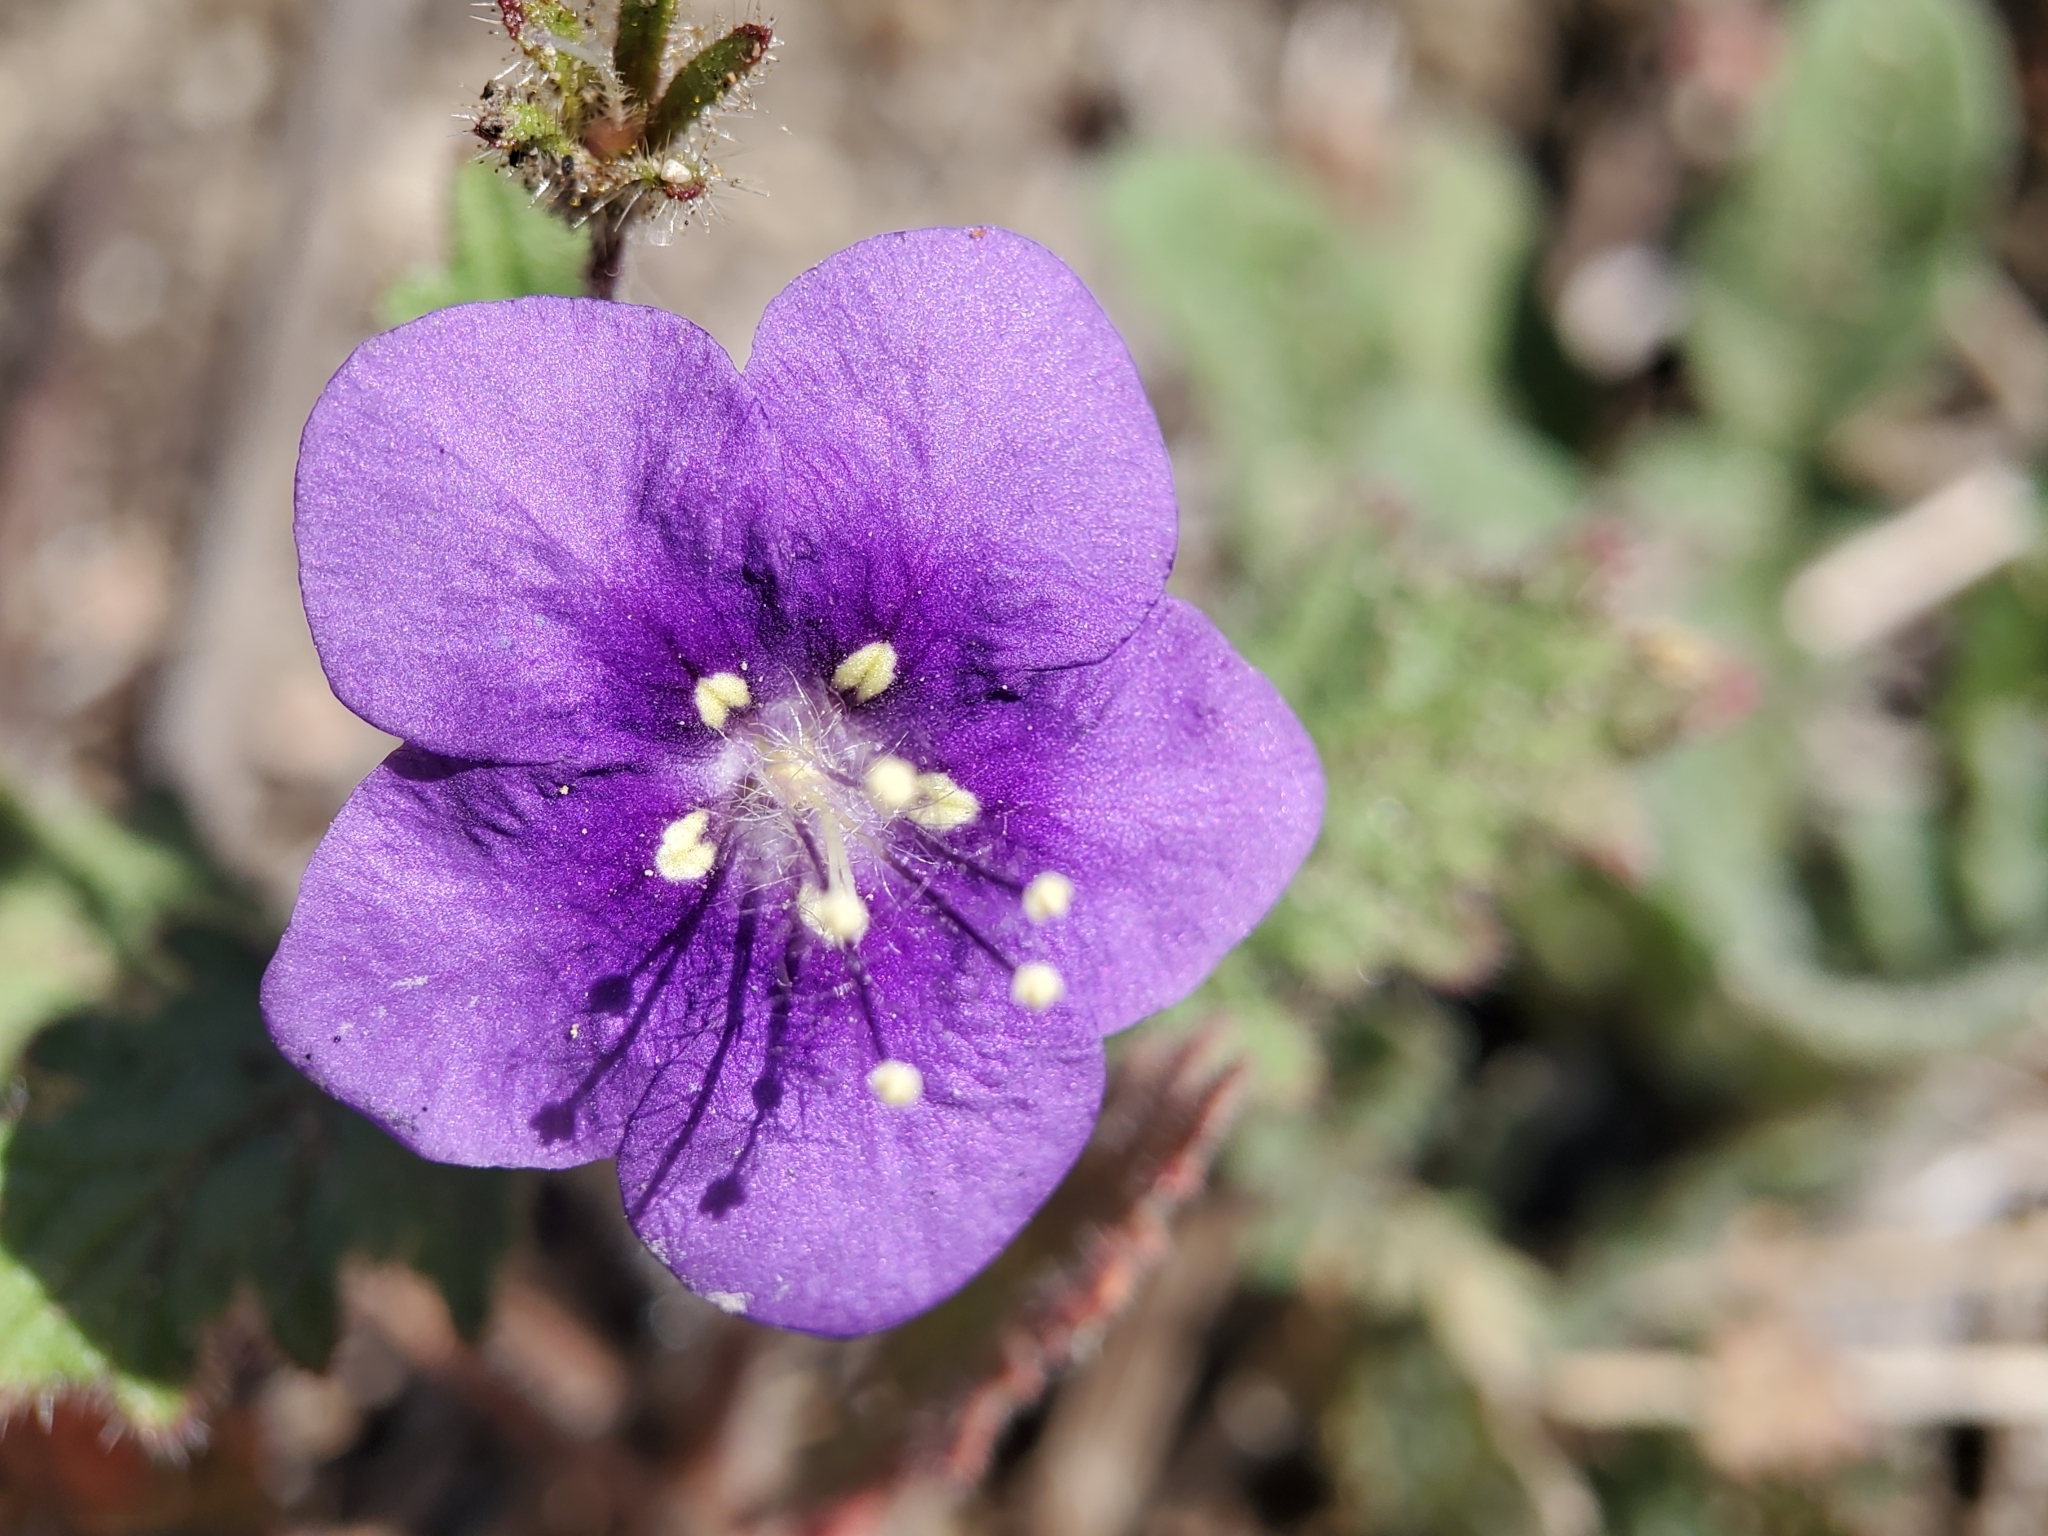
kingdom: Plantae
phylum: Tracheophyta
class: Magnoliopsida
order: Boraginales
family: Hydrophyllaceae
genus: Phacelia
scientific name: Phacelia parryi
